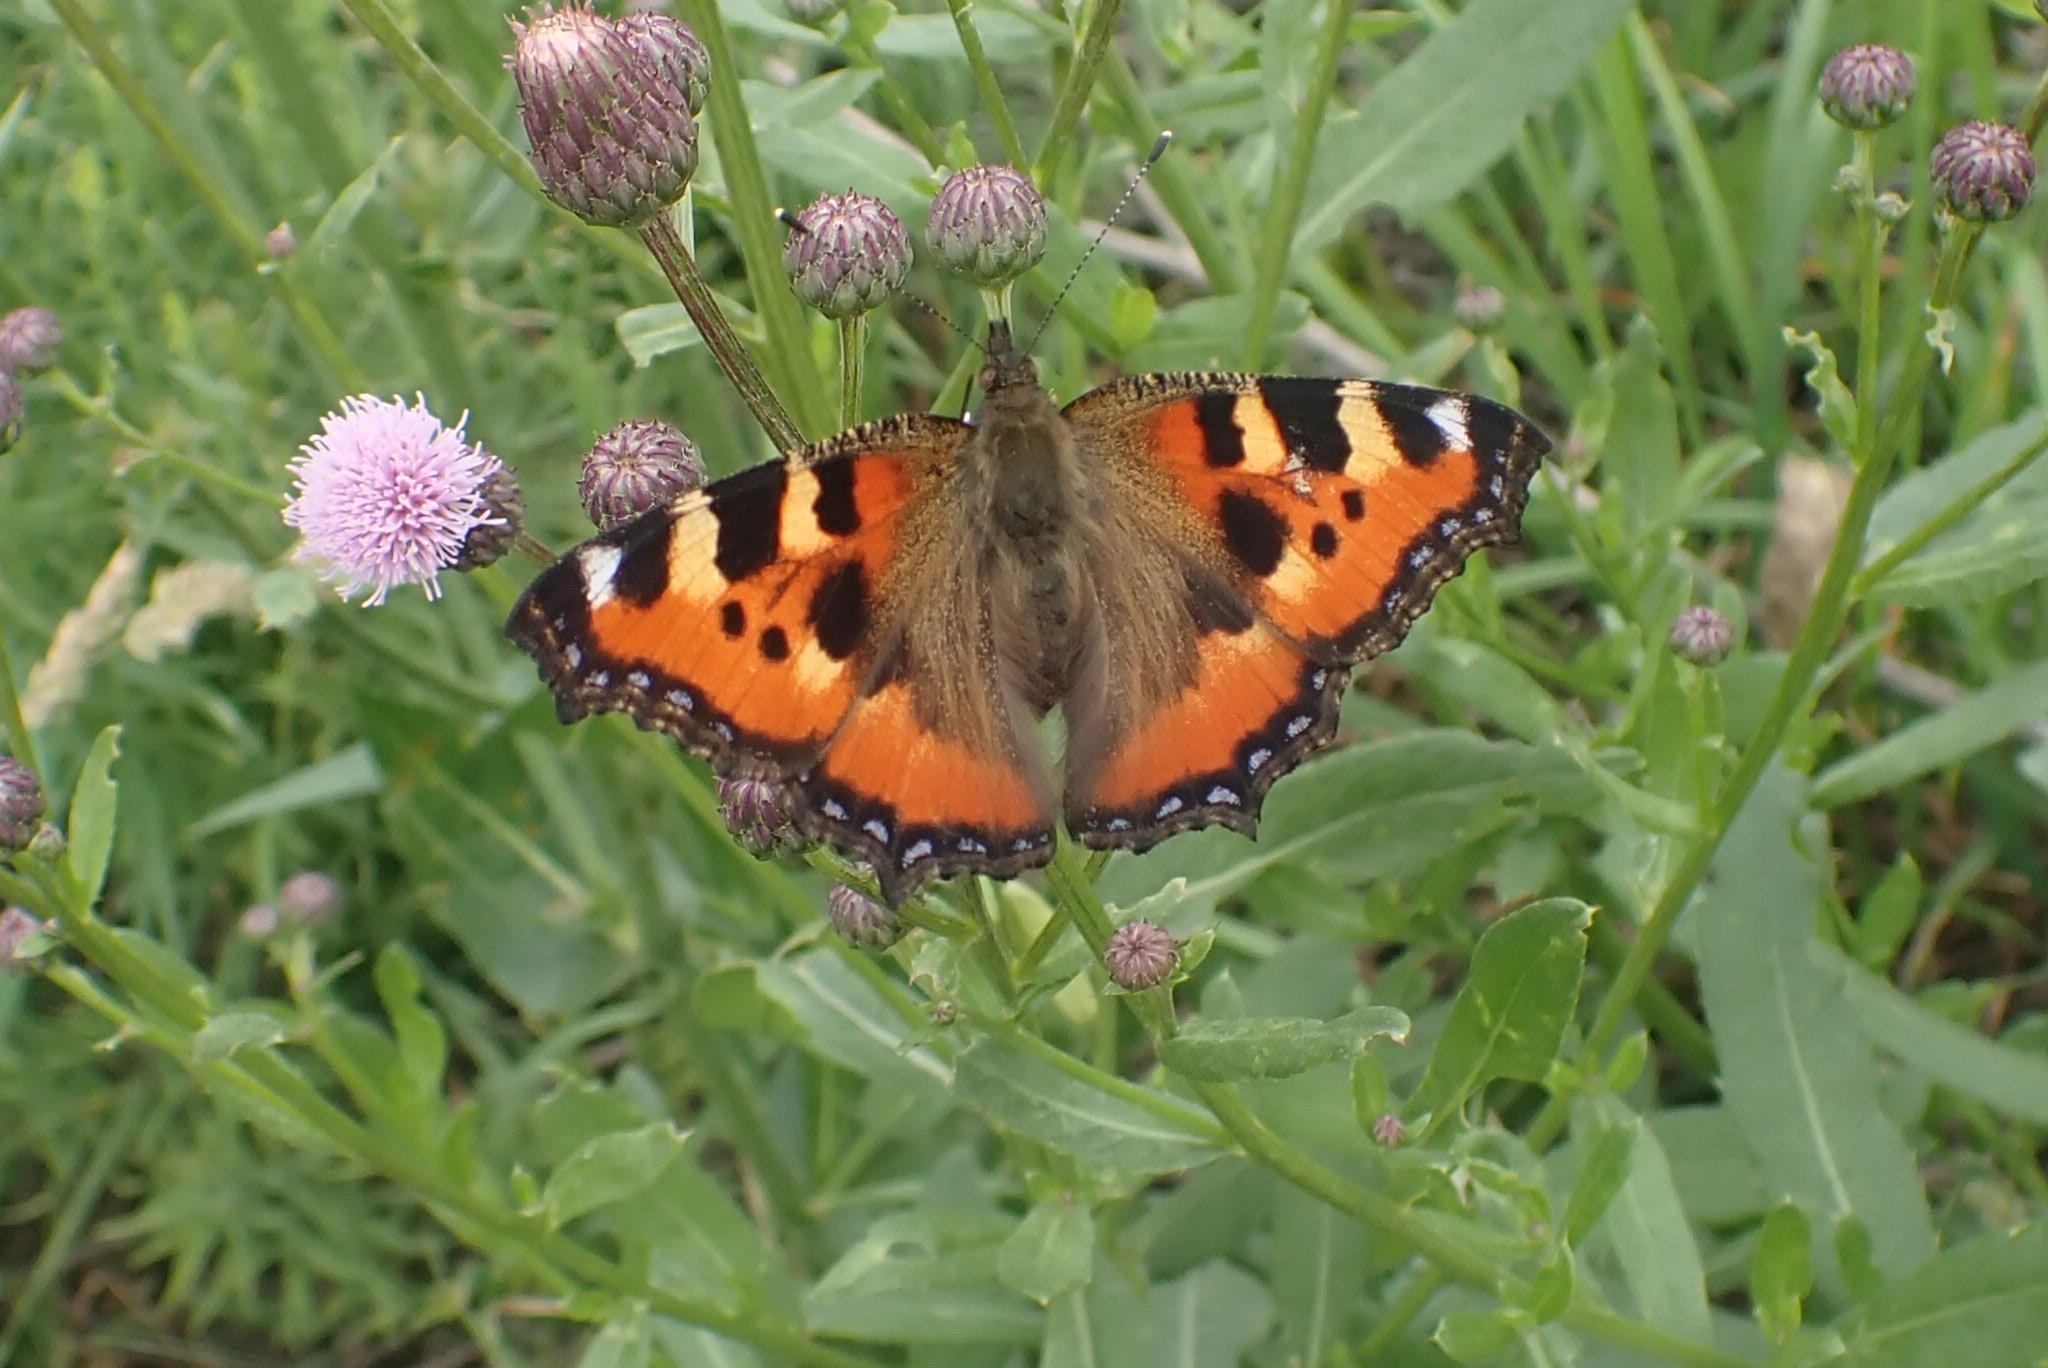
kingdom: Animalia
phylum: Arthropoda
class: Insecta
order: Lepidoptera
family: Nymphalidae
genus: Aglais
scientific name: Aglais urticae
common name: Small tortoiseshell
